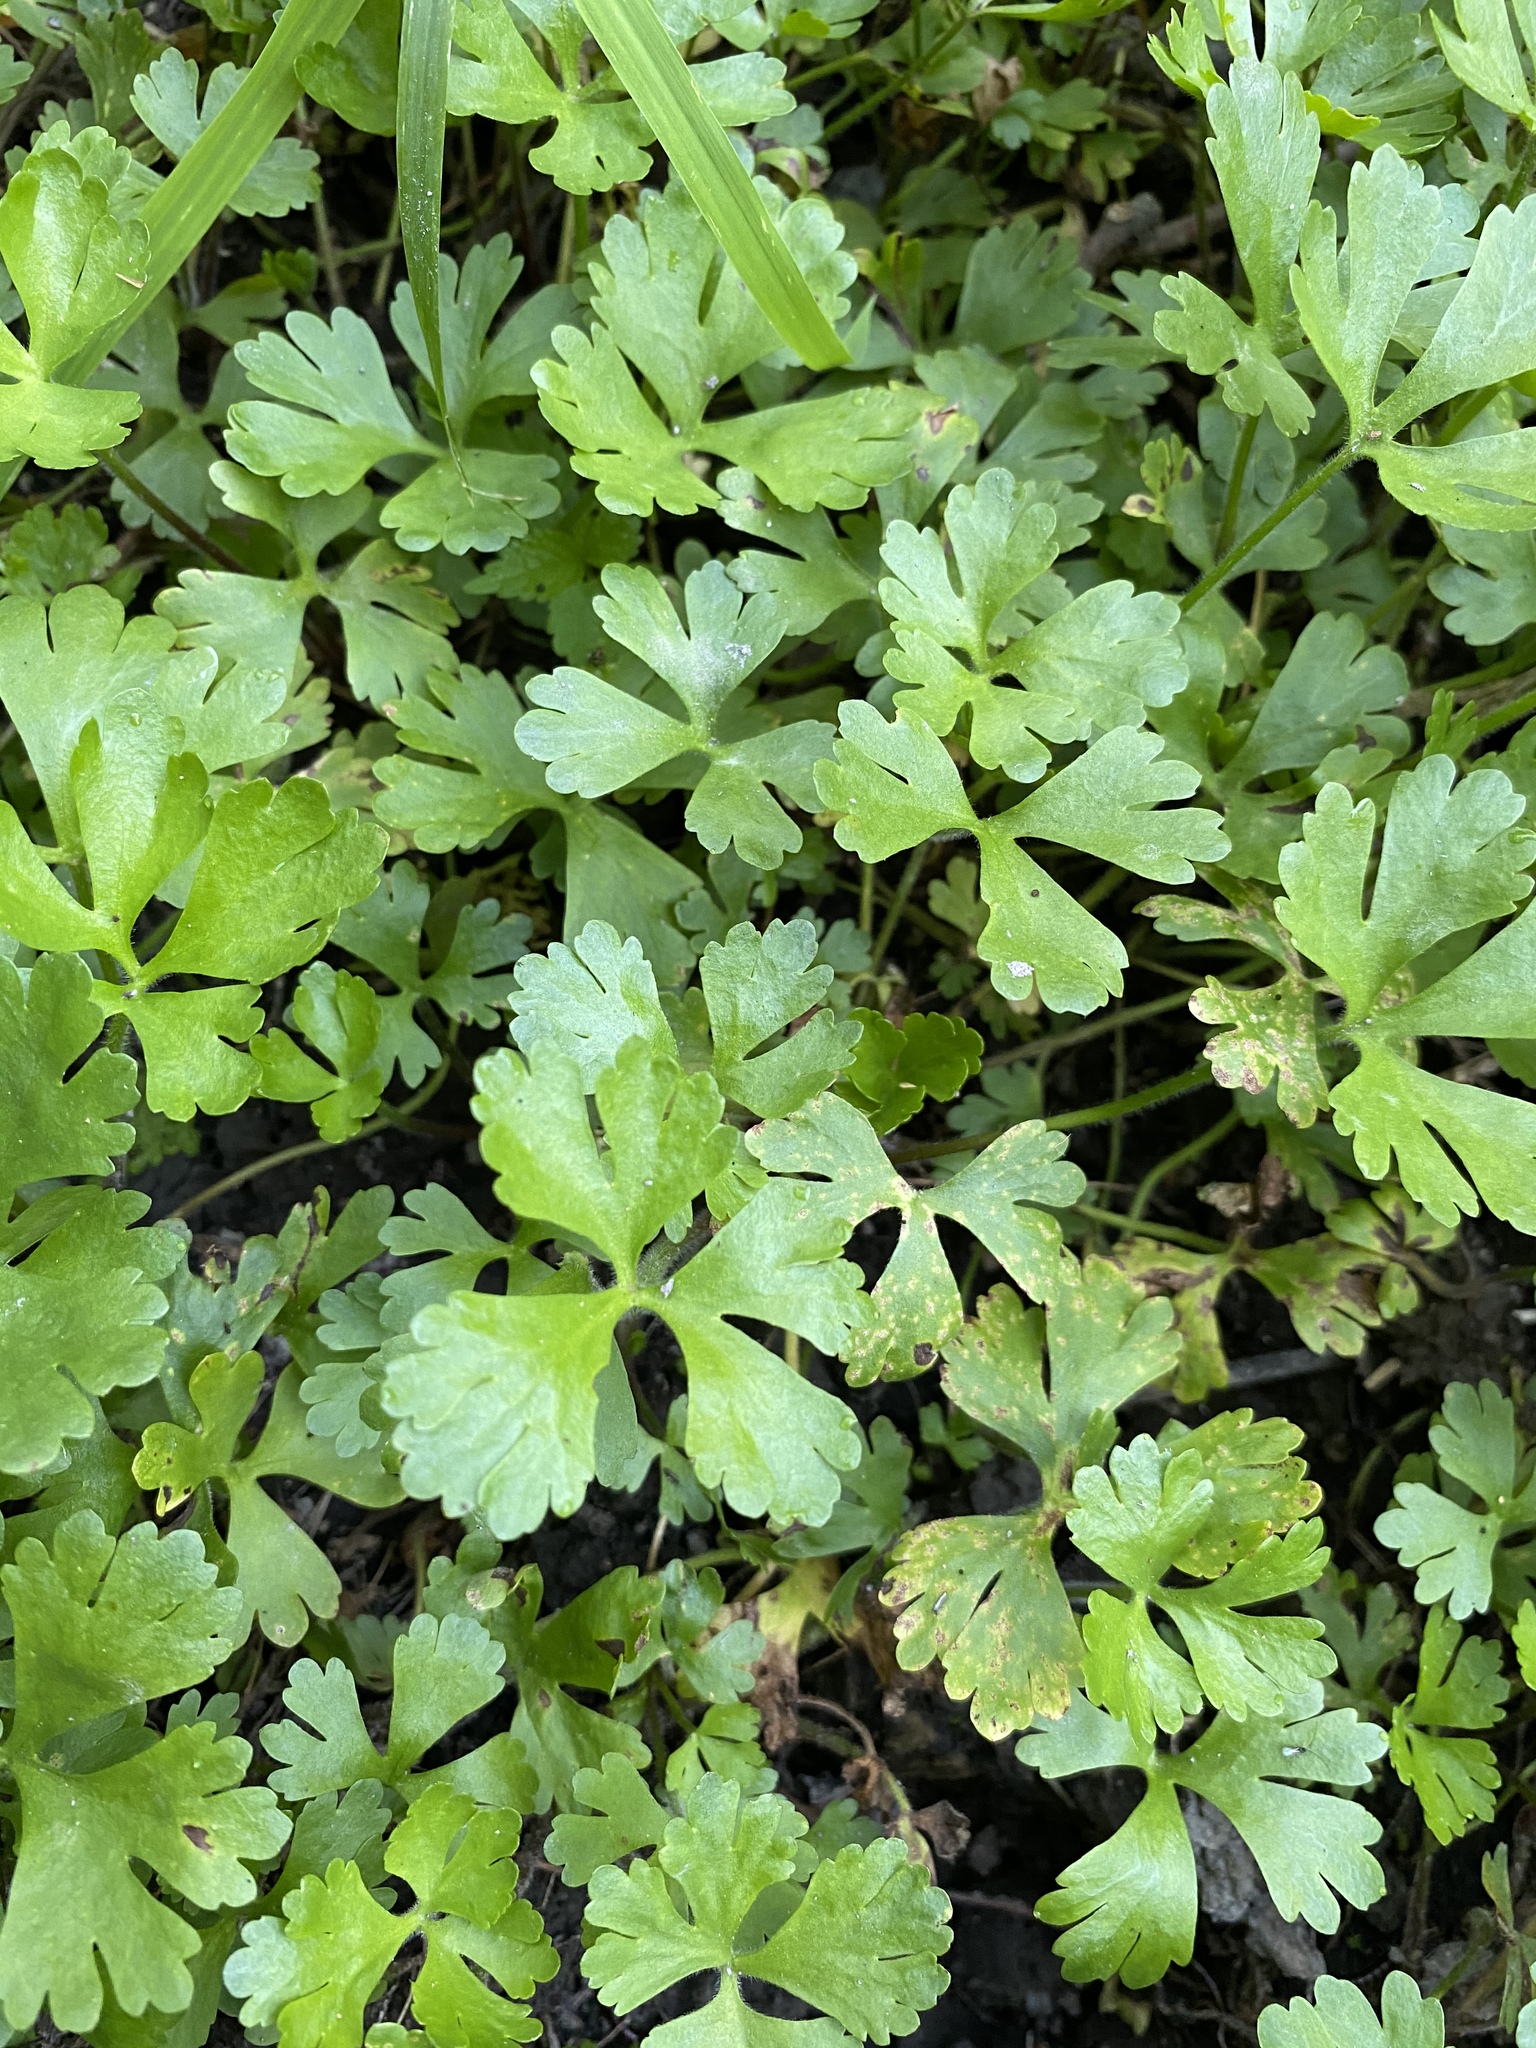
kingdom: Plantae
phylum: Tracheophyta
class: Magnoliopsida
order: Ranunculales
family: Ranunculaceae
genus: Ranunculus
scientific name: Ranunculus flabellaris
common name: Yellow water-crowfoot
